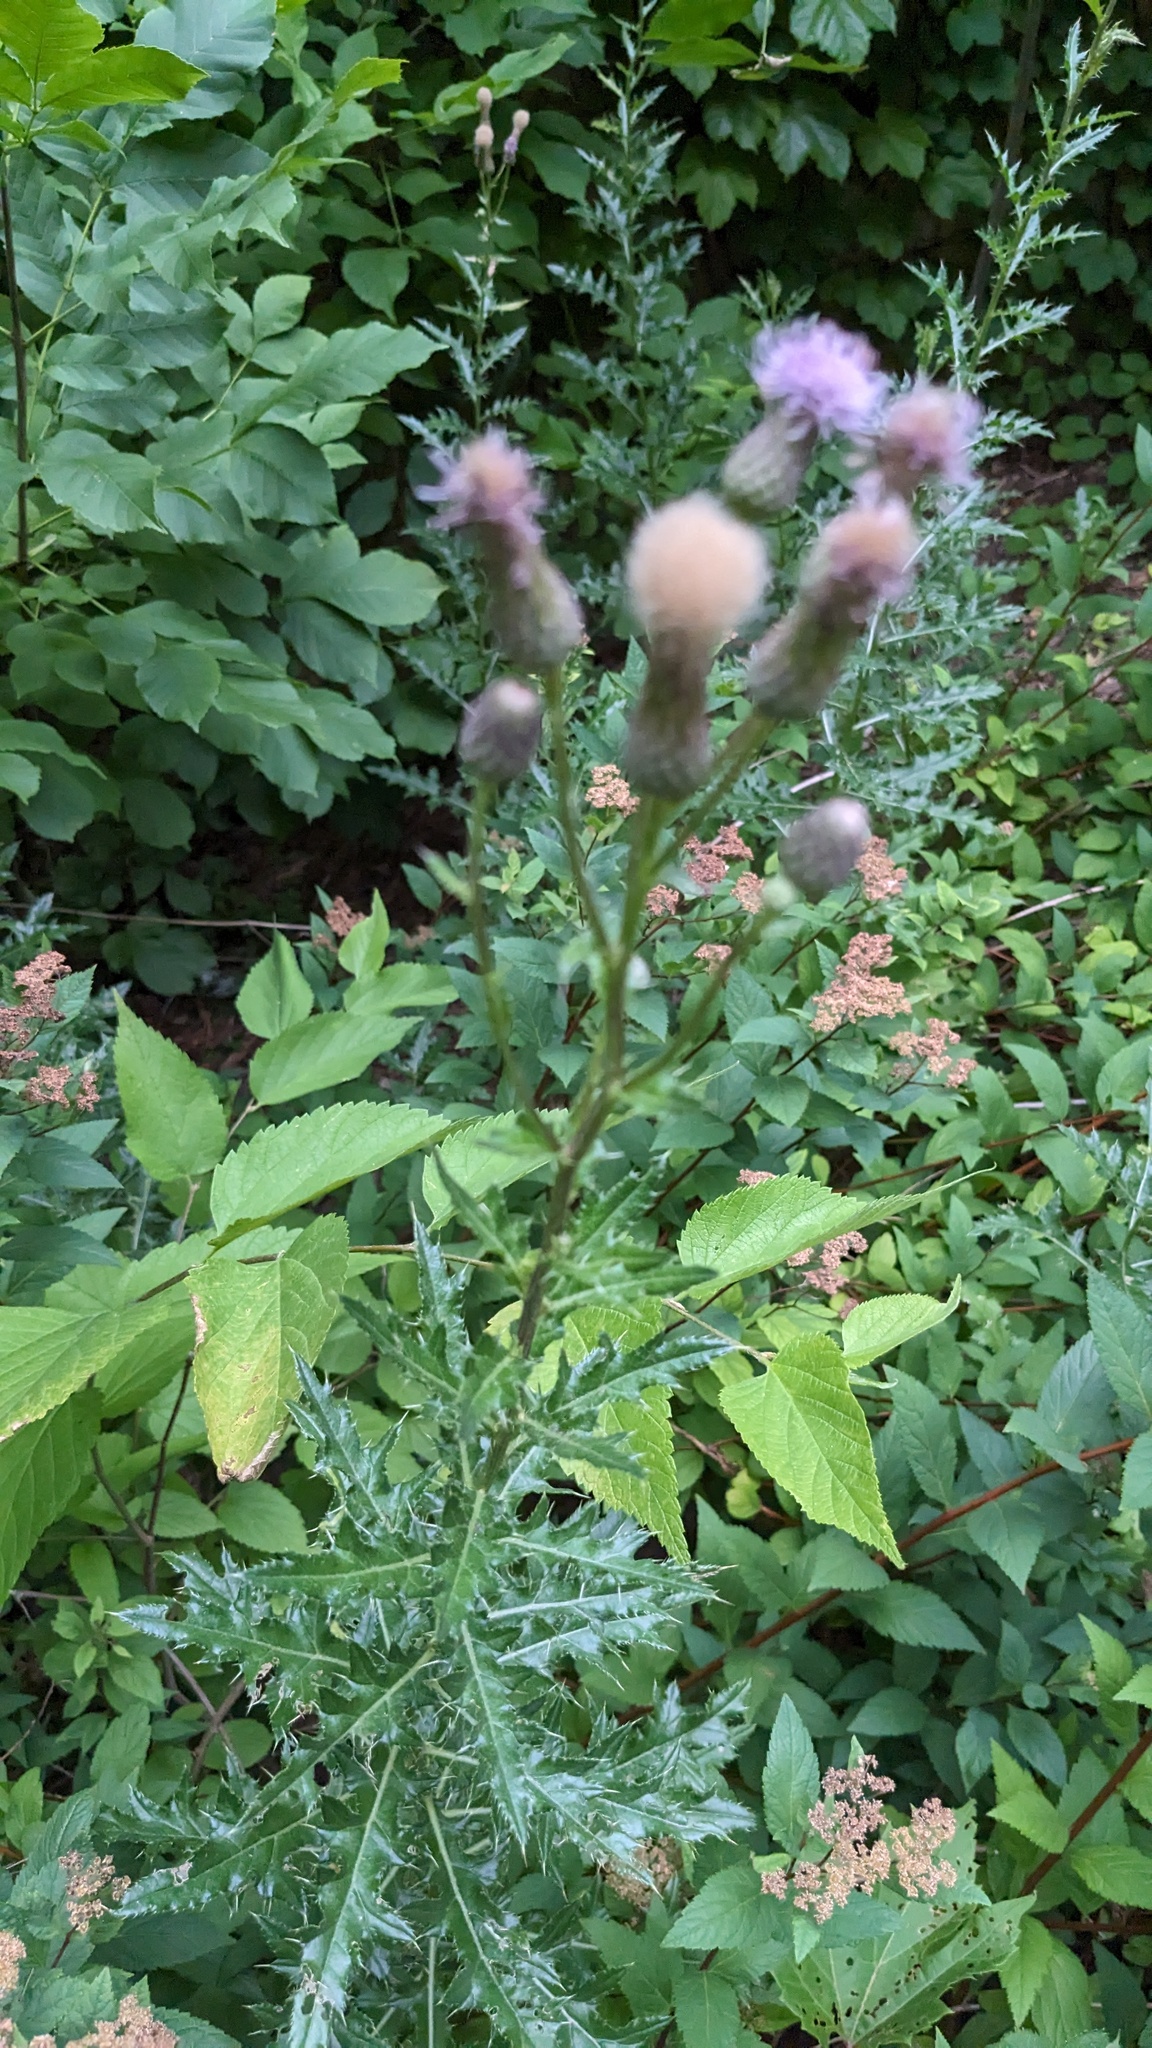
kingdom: Plantae
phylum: Tracheophyta
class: Magnoliopsida
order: Asterales
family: Asteraceae
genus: Cirsium
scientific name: Cirsium arvense
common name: Creeping thistle
